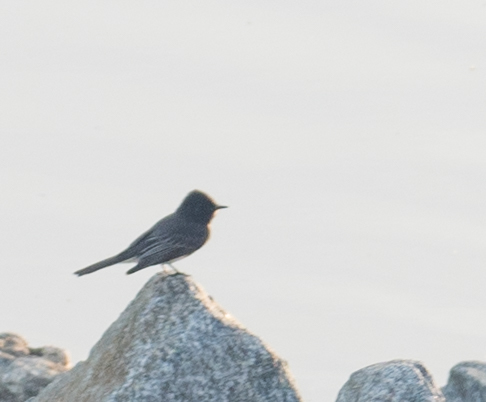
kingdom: Animalia
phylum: Chordata
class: Aves
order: Passeriformes
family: Tyrannidae
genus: Sayornis
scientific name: Sayornis nigricans
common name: Black phoebe
